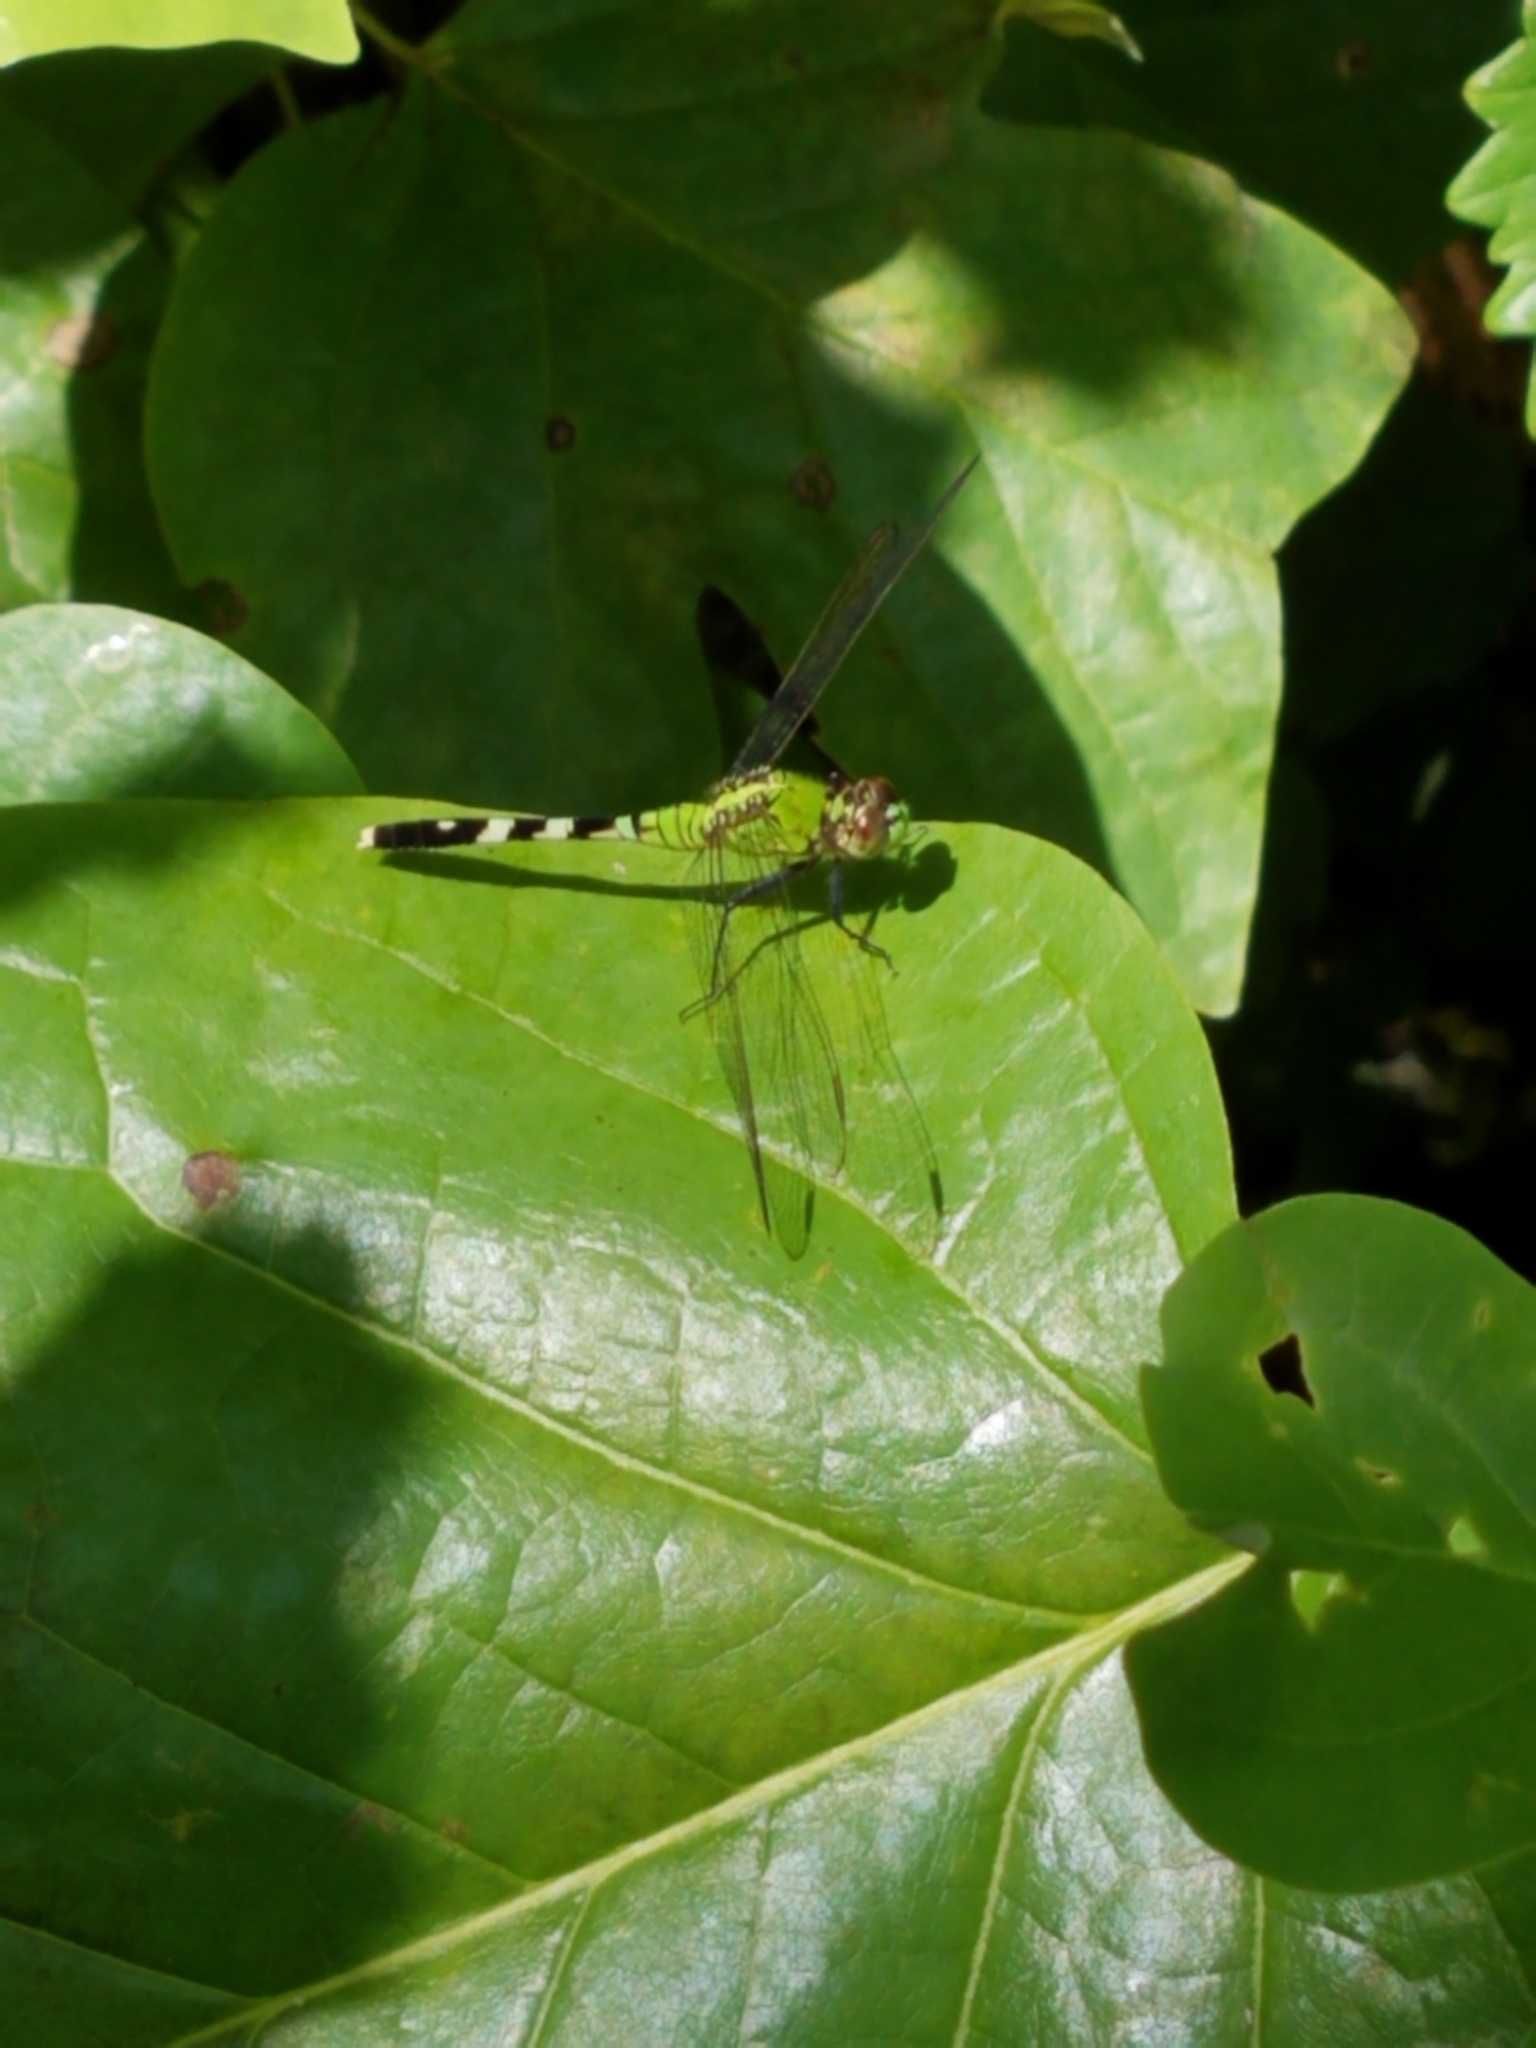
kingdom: Animalia
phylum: Arthropoda
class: Insecta
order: Odonata
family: Libellulidae
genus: Erythemis
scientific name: Erythemis simplicicollis
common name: Eastern pondhawk
